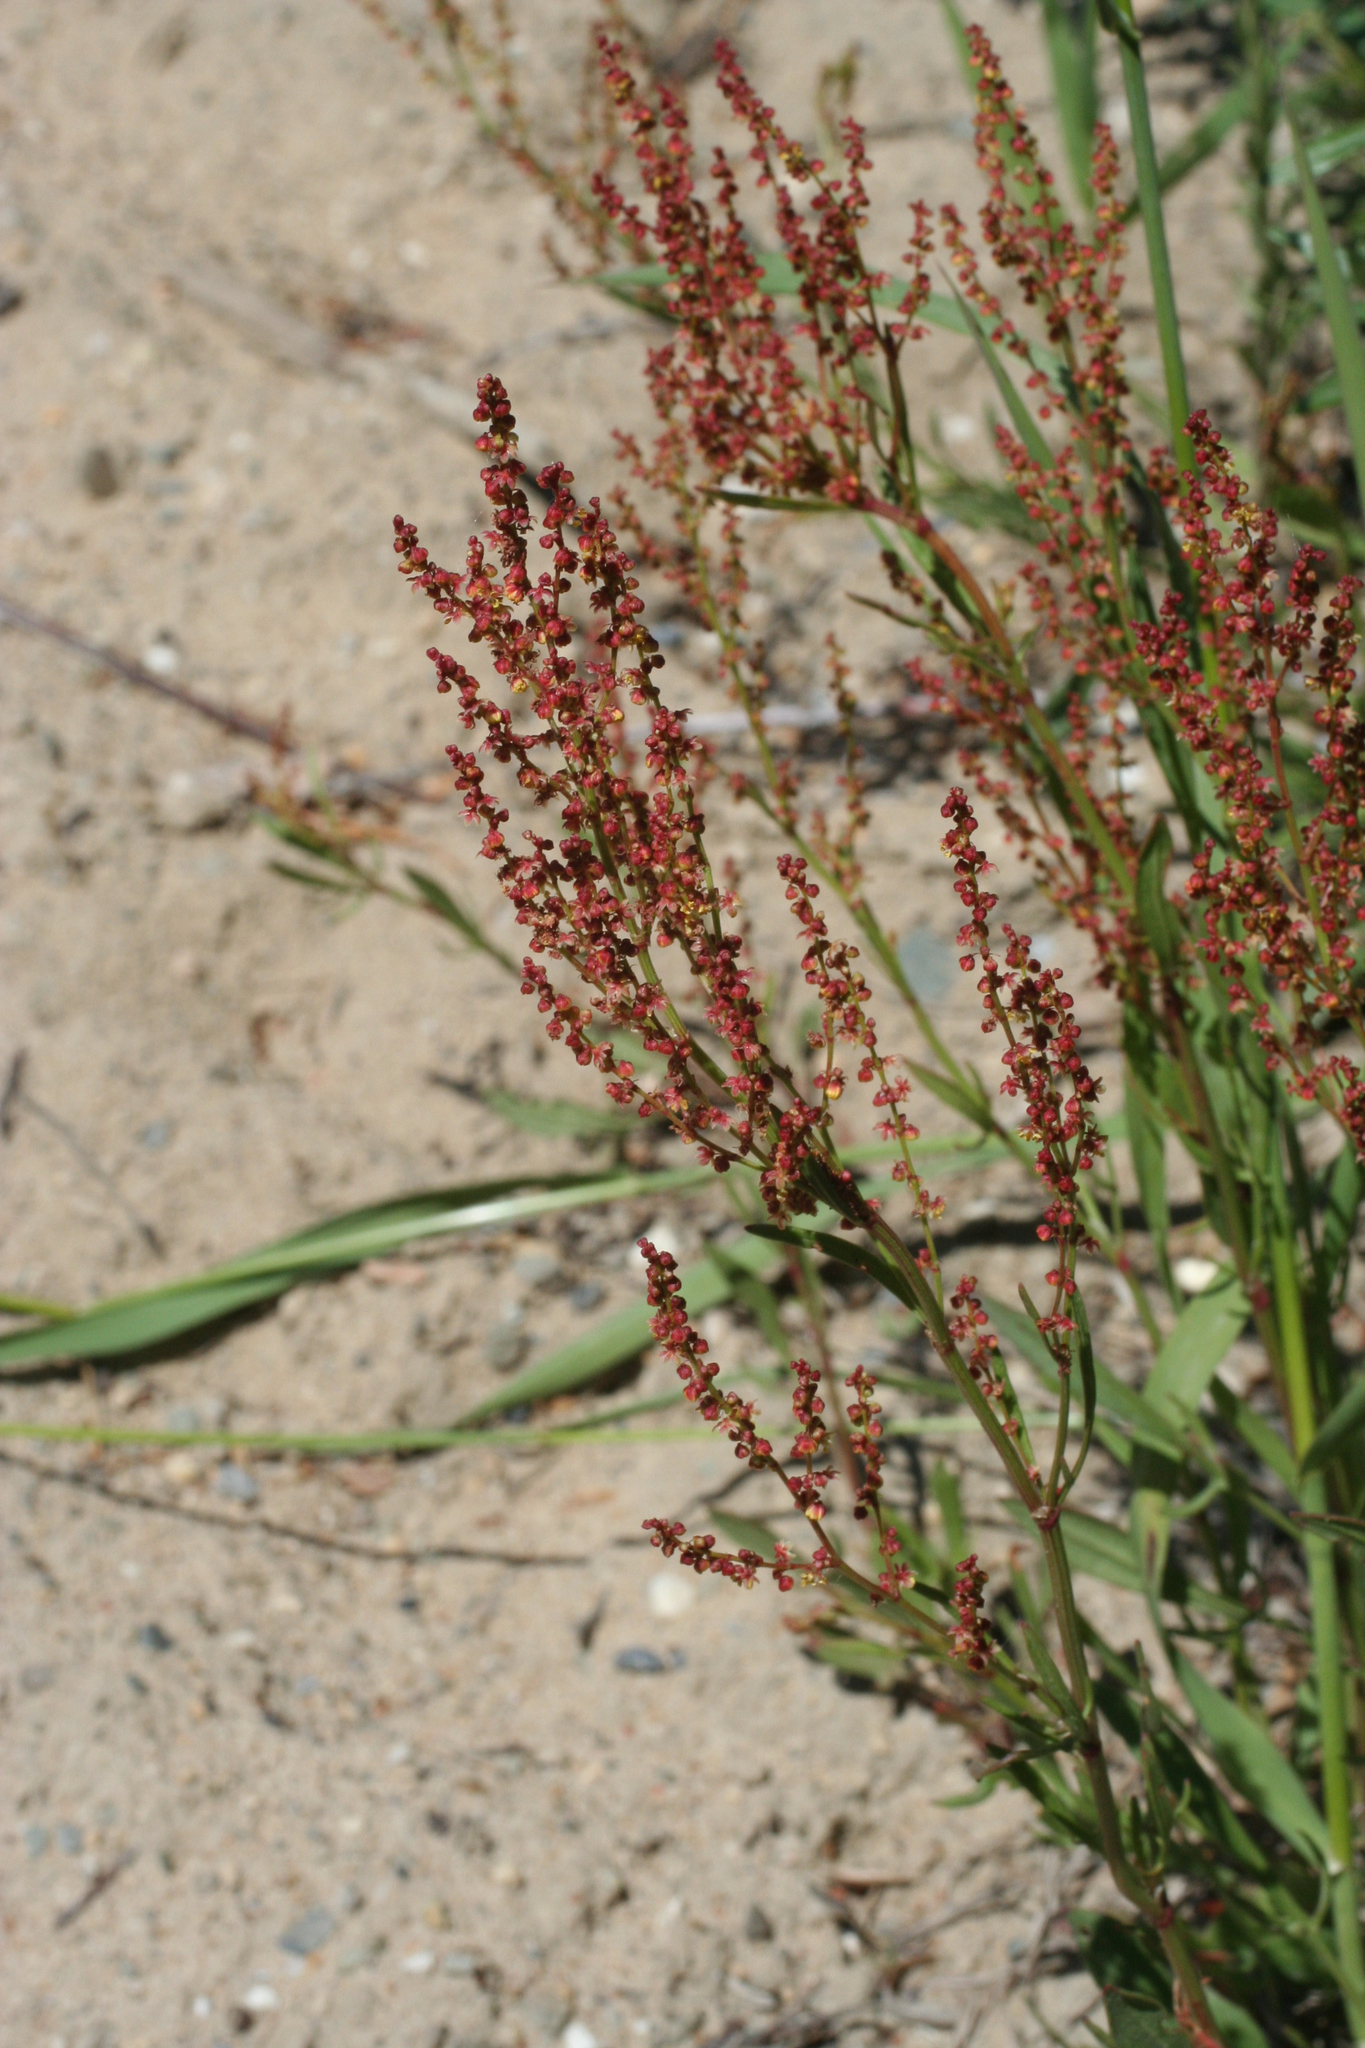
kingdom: Plantae
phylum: Tracheophyta
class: Magnoliopsida
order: Caryophyllales
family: Polygonaceae
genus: Rumex
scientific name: Rumex acetosella
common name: Common sheep sorrel
